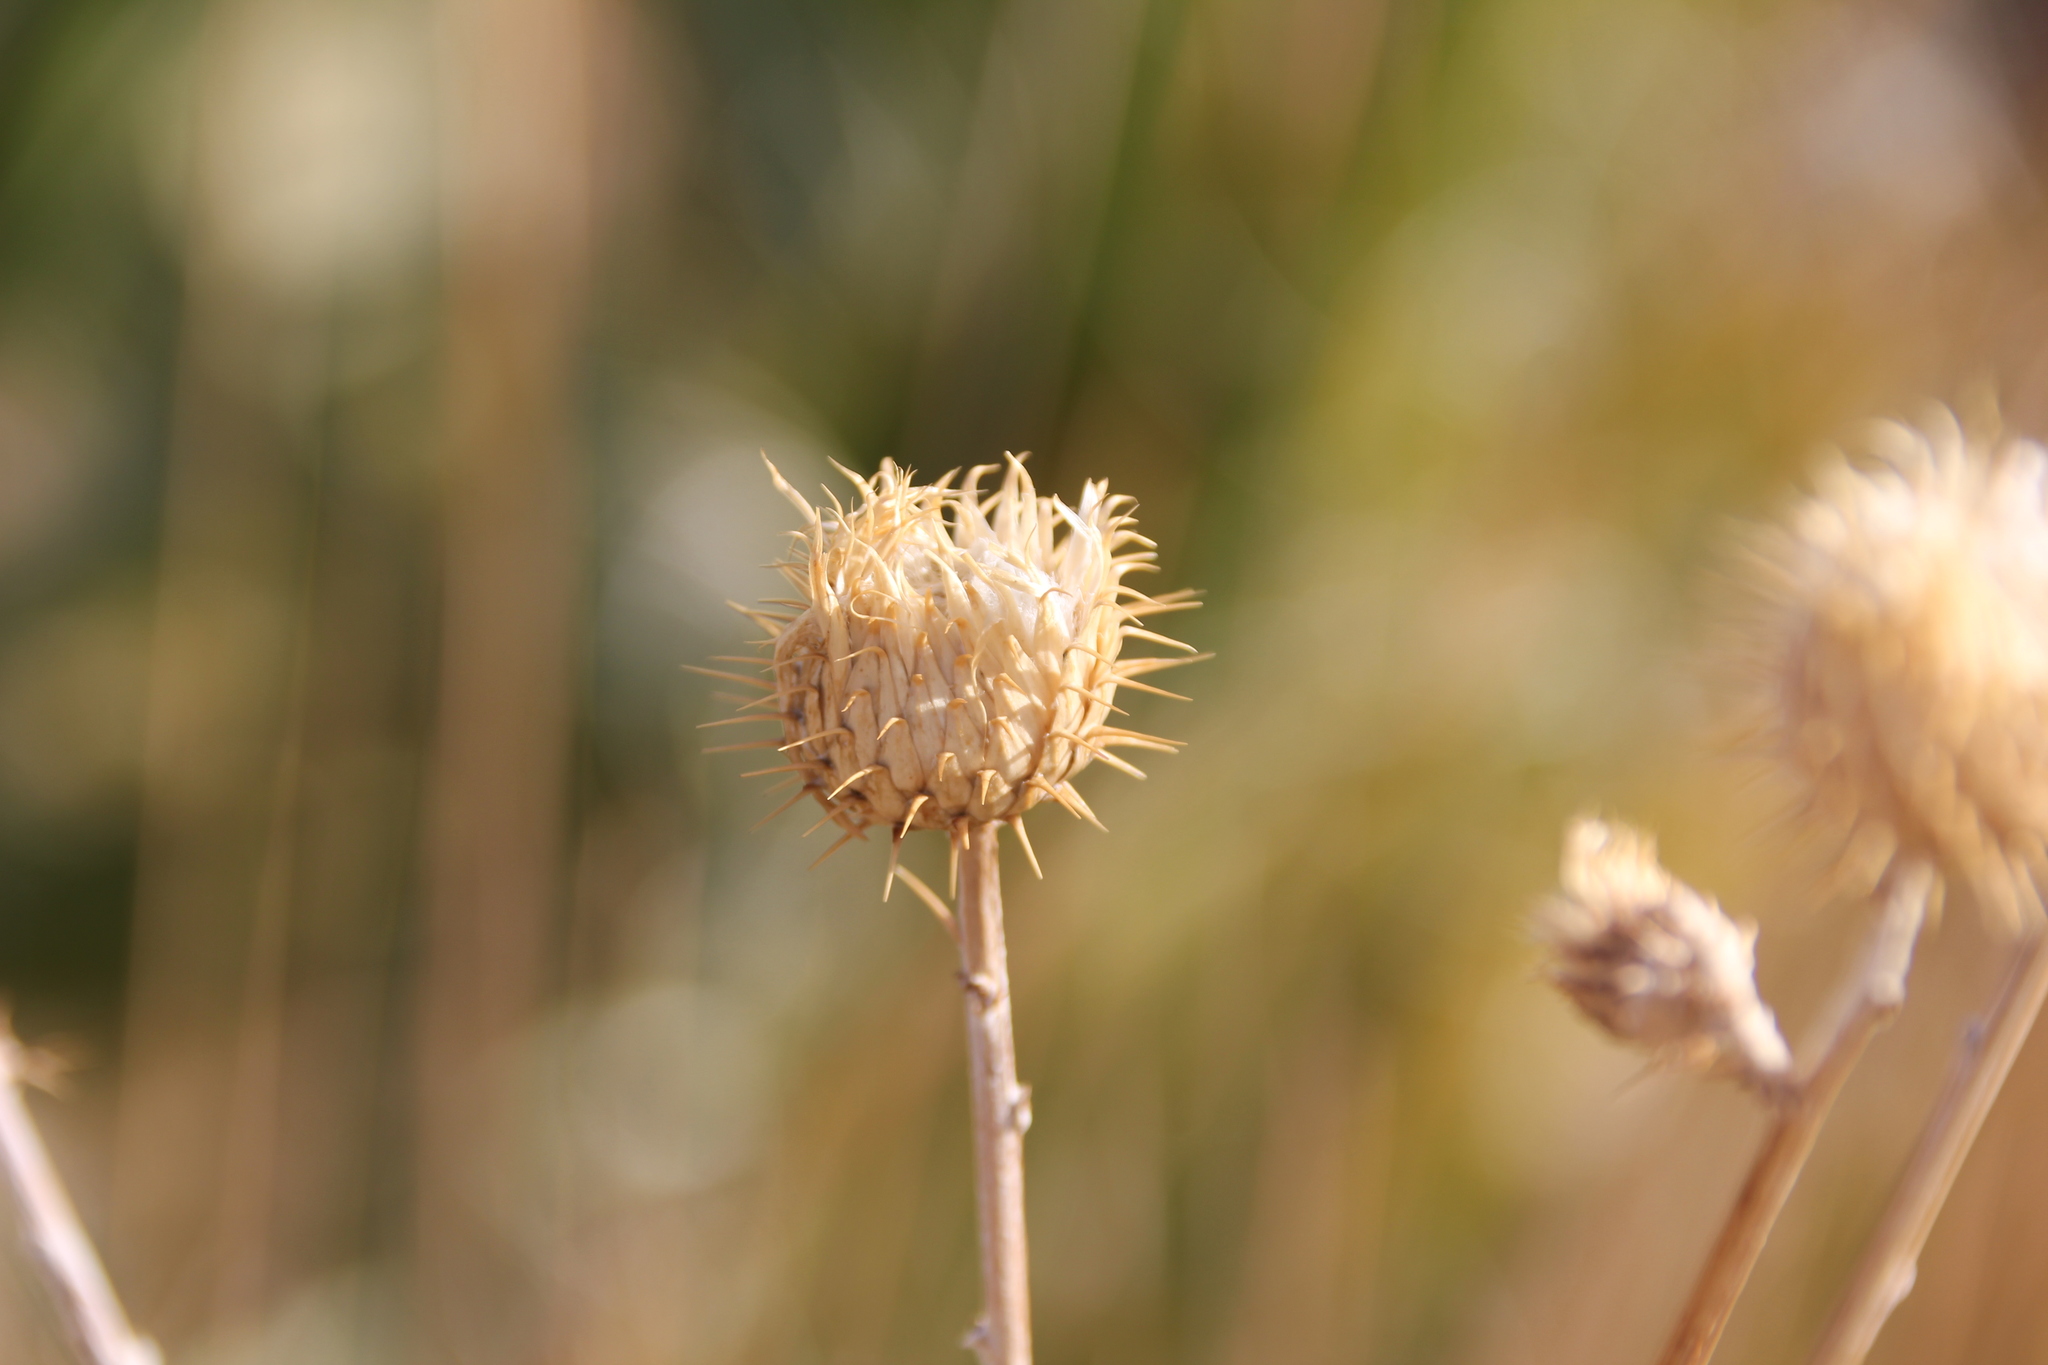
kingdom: Plantae
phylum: Tracheophyta
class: Magnoliopsida
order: Asterales
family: Asteraceae
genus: Cirsium
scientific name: Cirsium mohavense
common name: Mojave thistle
